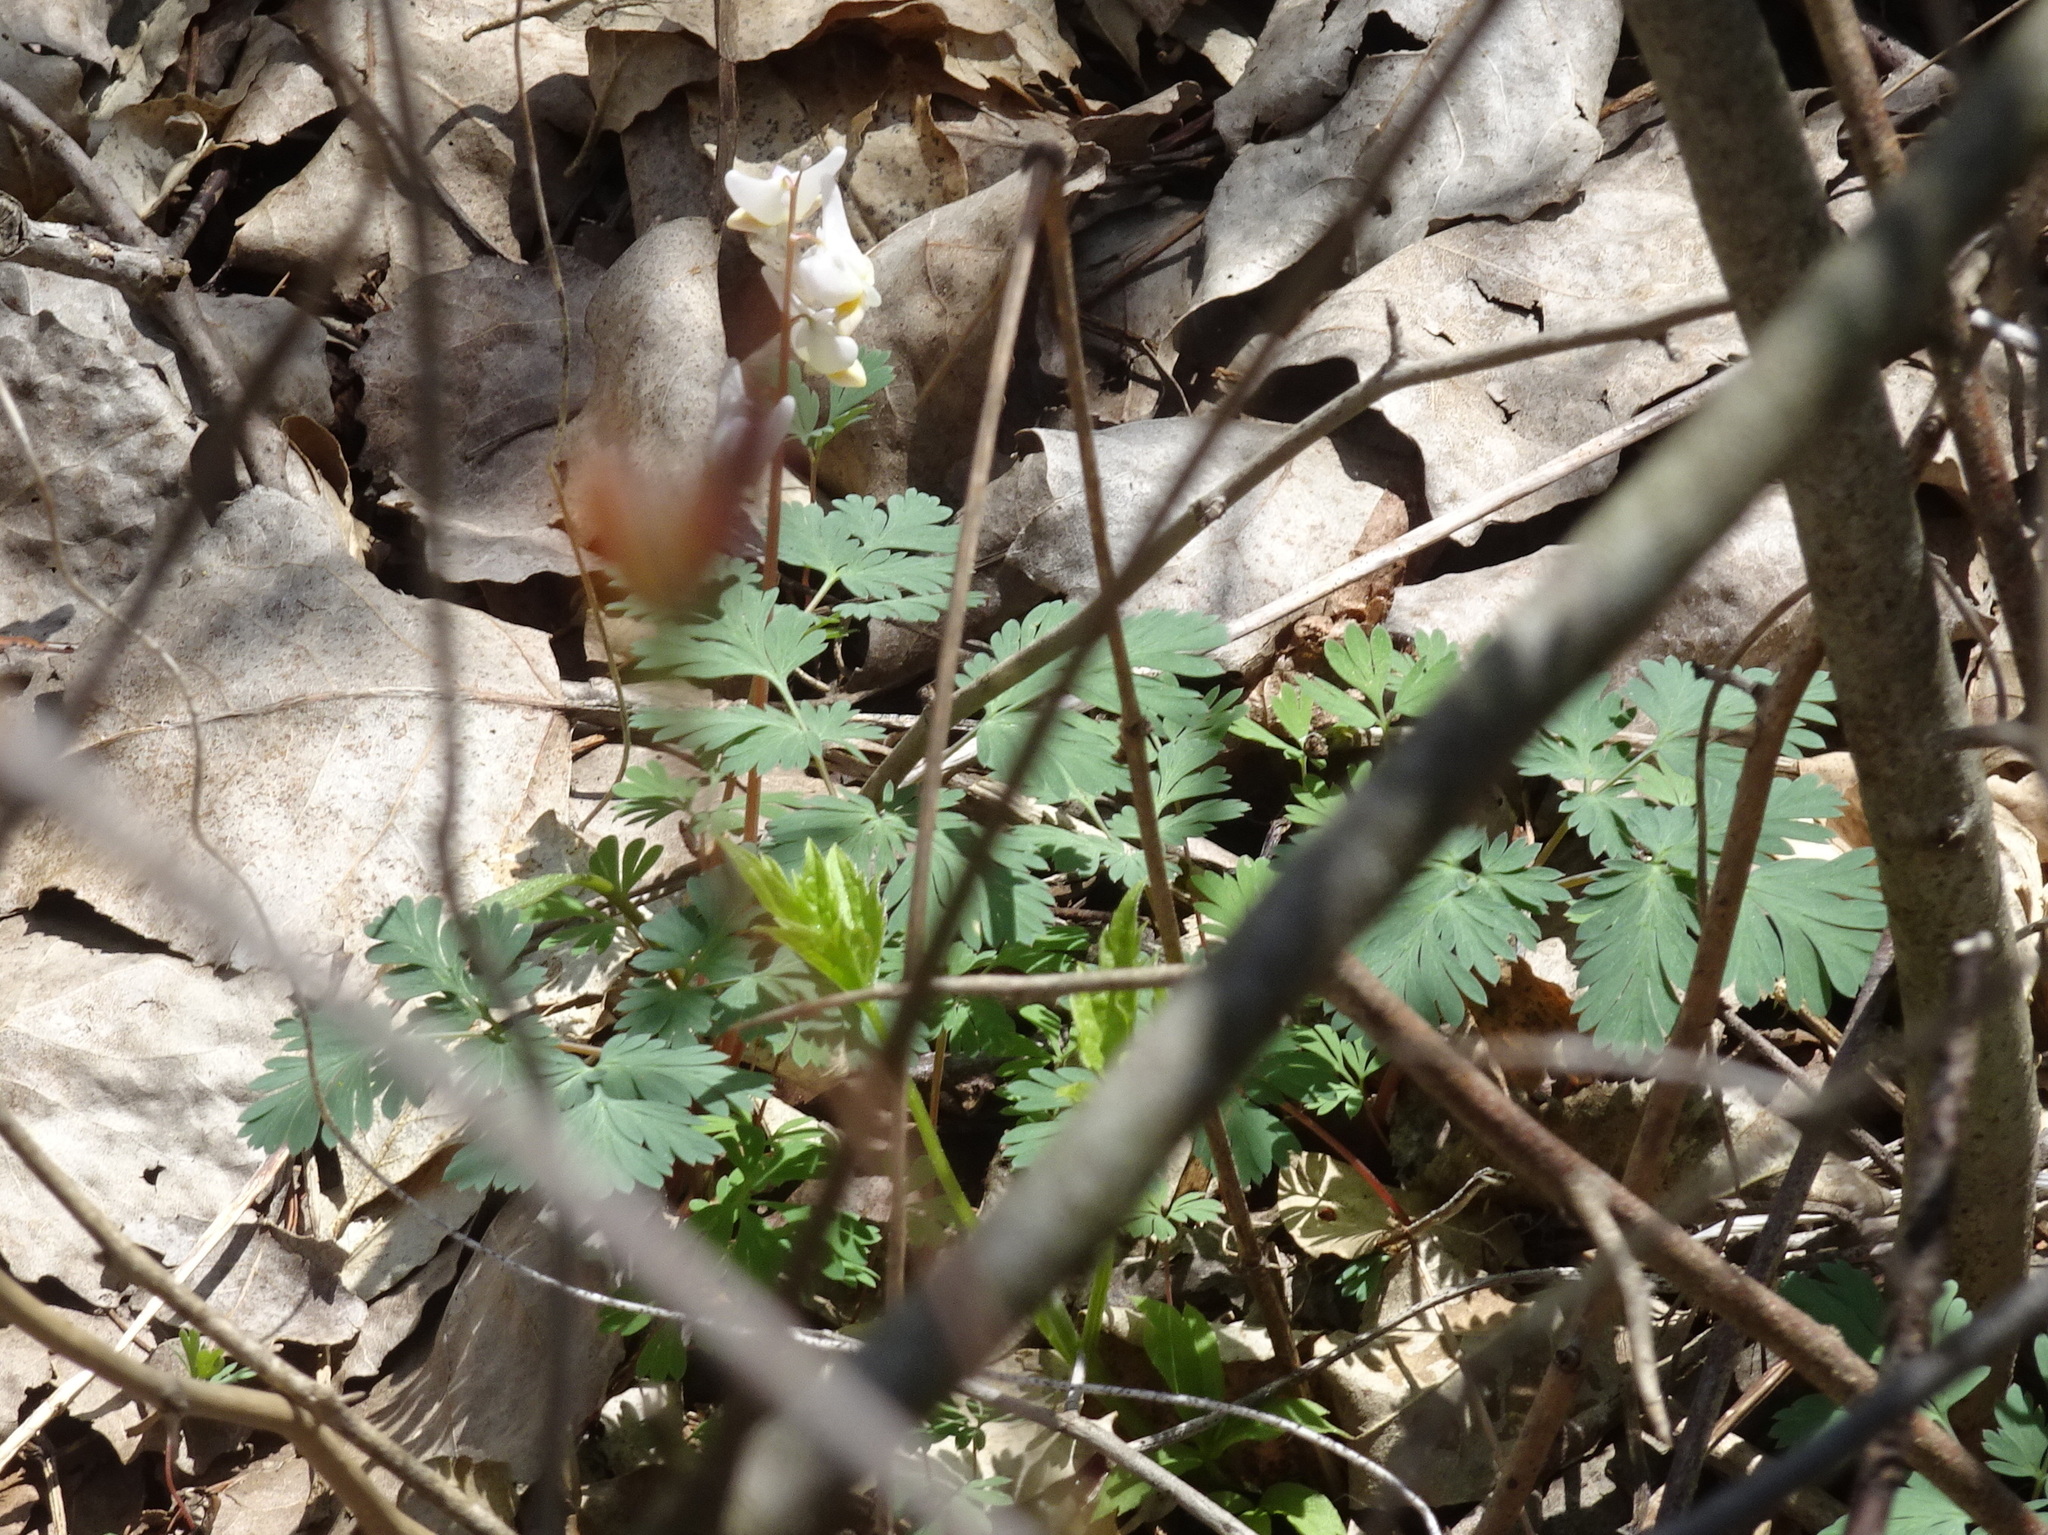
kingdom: Plantae
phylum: Tracheophyta
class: Magnoliopsida
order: Ranunculales
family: Papaveraceae
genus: Dicentra
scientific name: Dicentra cucullaria
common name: Dutchman's breeches
